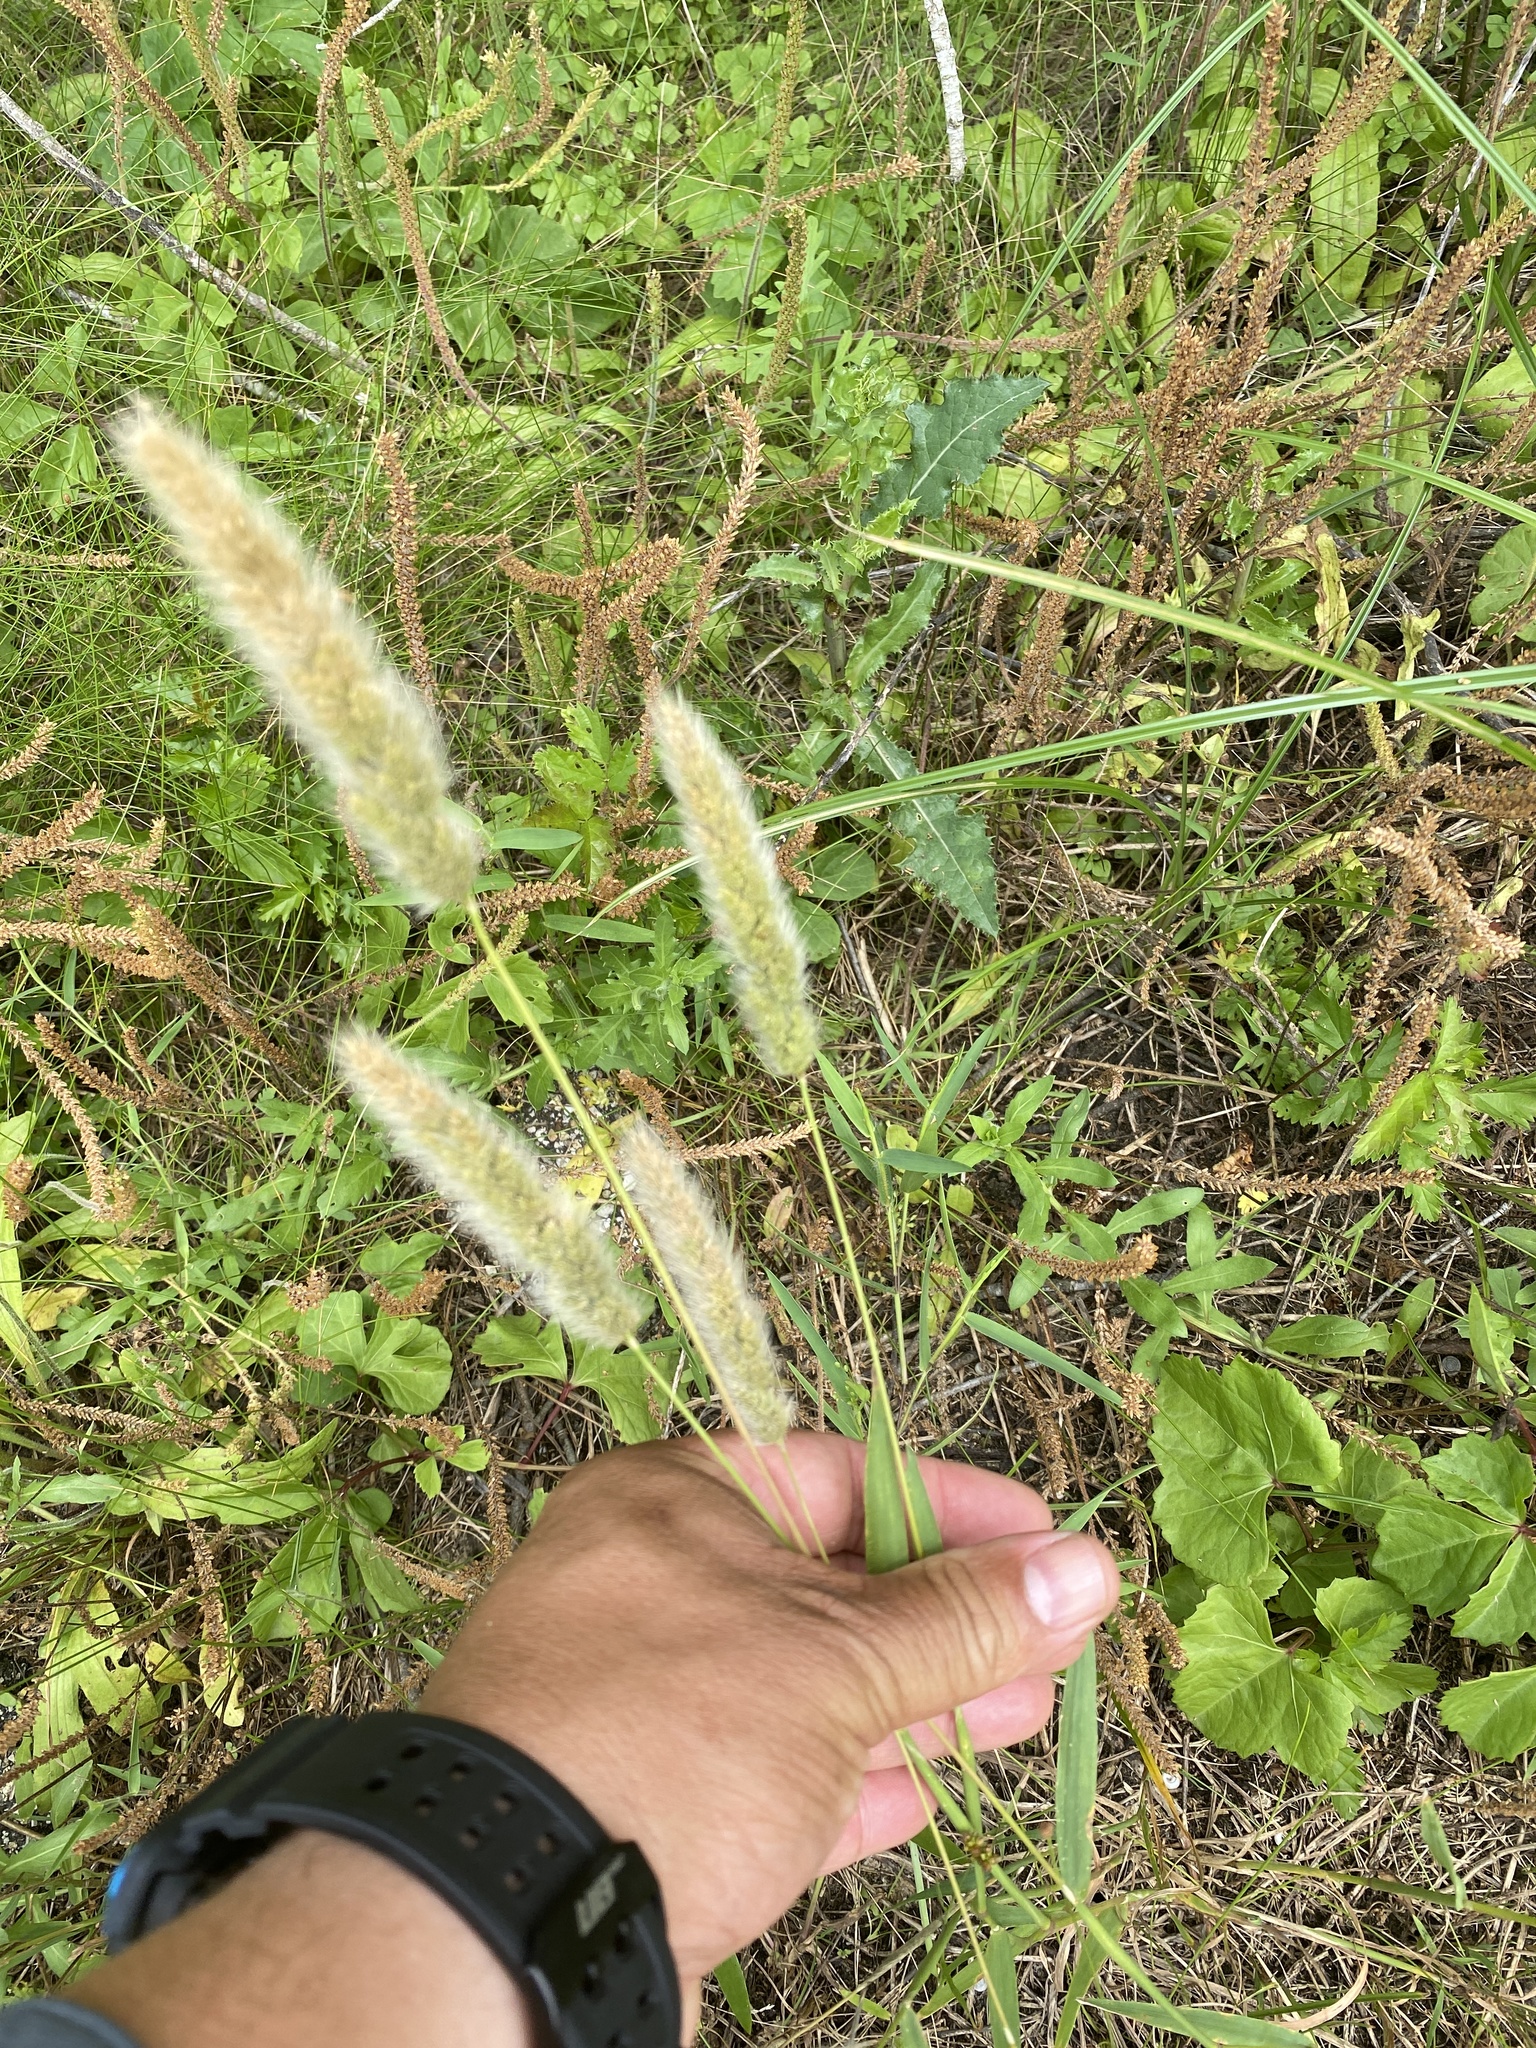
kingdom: Plantae
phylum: Tracheophyta
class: Liliopsida
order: Poales
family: Poaceae
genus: Polypogon
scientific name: Polypogon monspeliensis
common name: Annual rabbitsfoot grass
